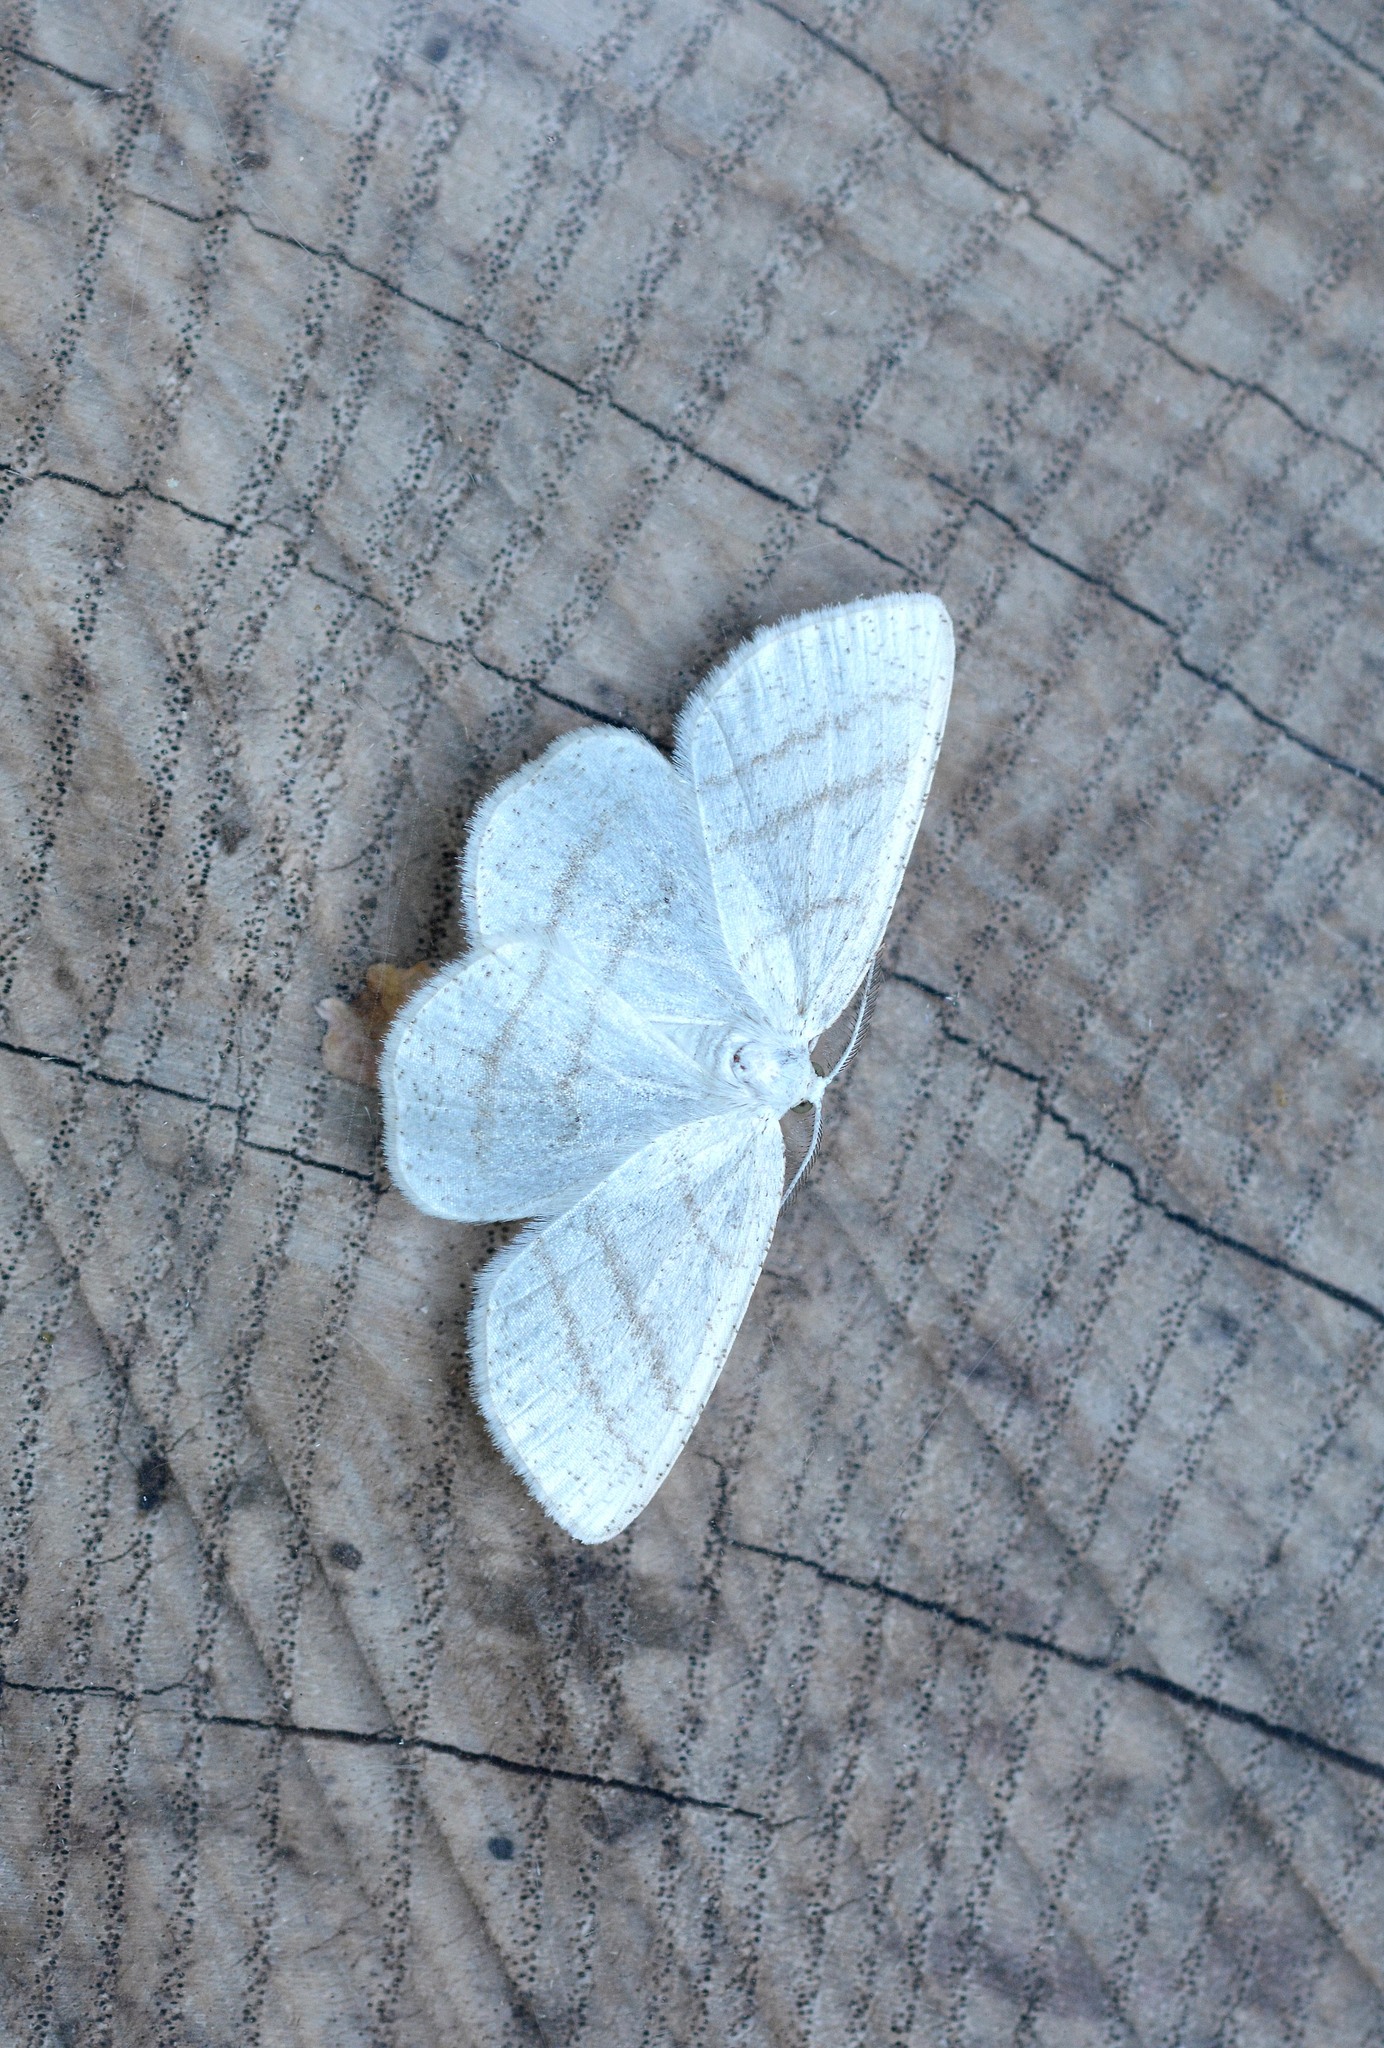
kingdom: Animalia
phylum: Arthropoda
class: Insecta
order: Lepidoptera
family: Geometridae
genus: Cabera
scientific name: Cabera pusaria
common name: Common white wave
